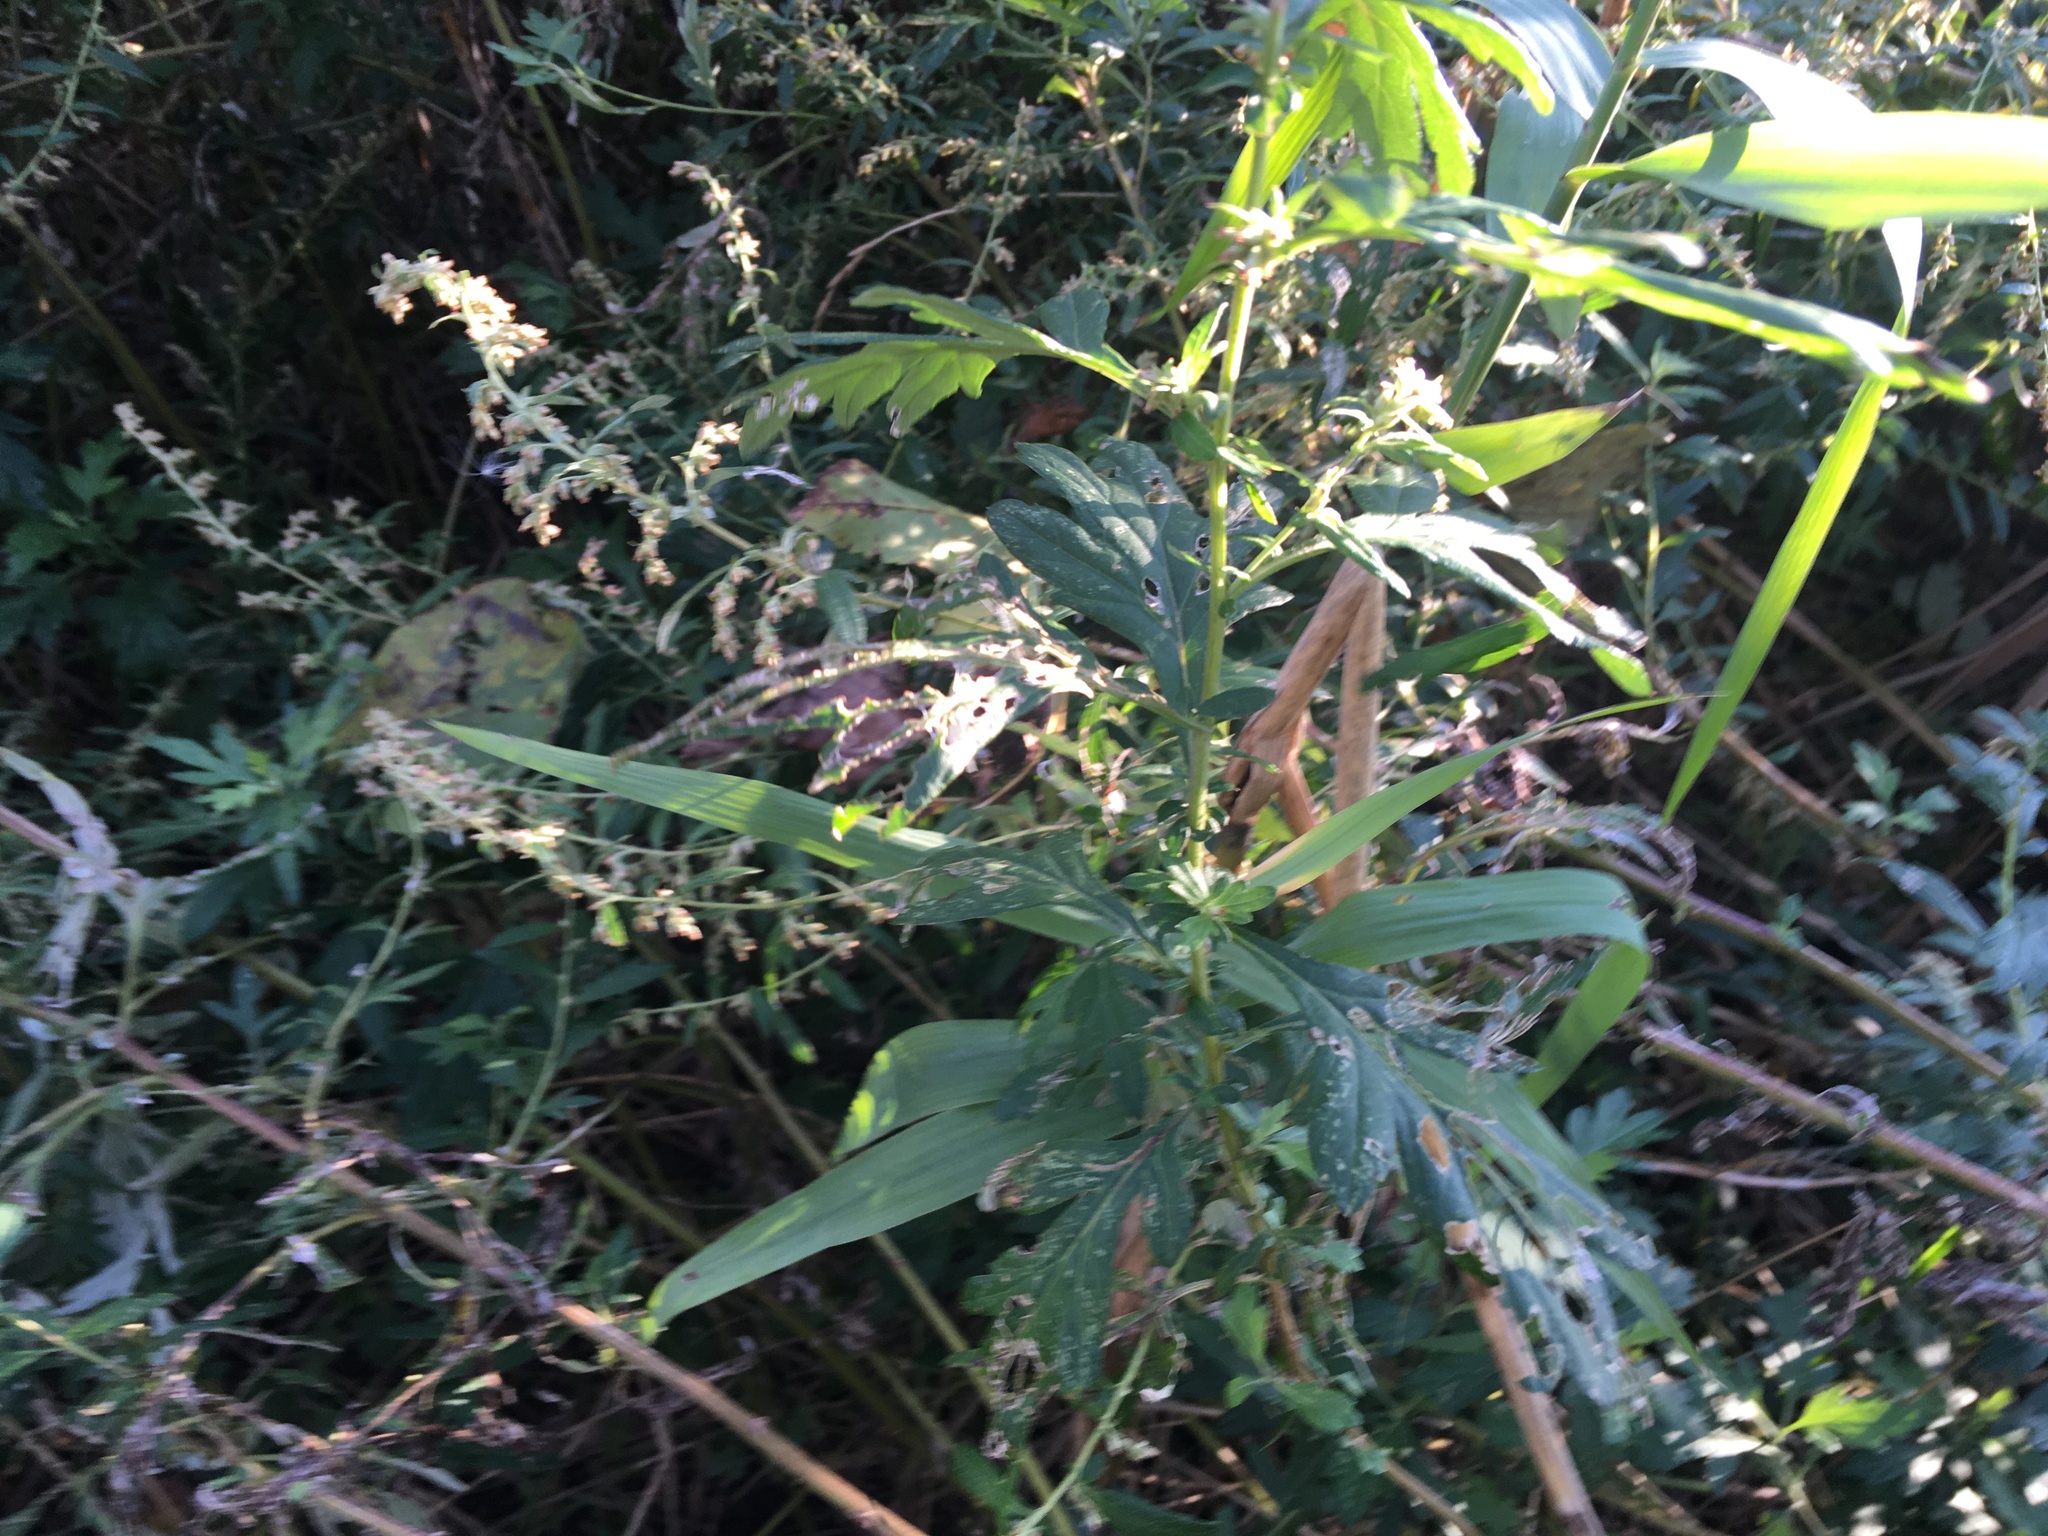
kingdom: Plantae
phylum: Tracheophyta
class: Magnoliopsida
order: Asterales
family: Asteraceae
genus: Artemisia
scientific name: Artemisia vulgaris
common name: Mugwort
